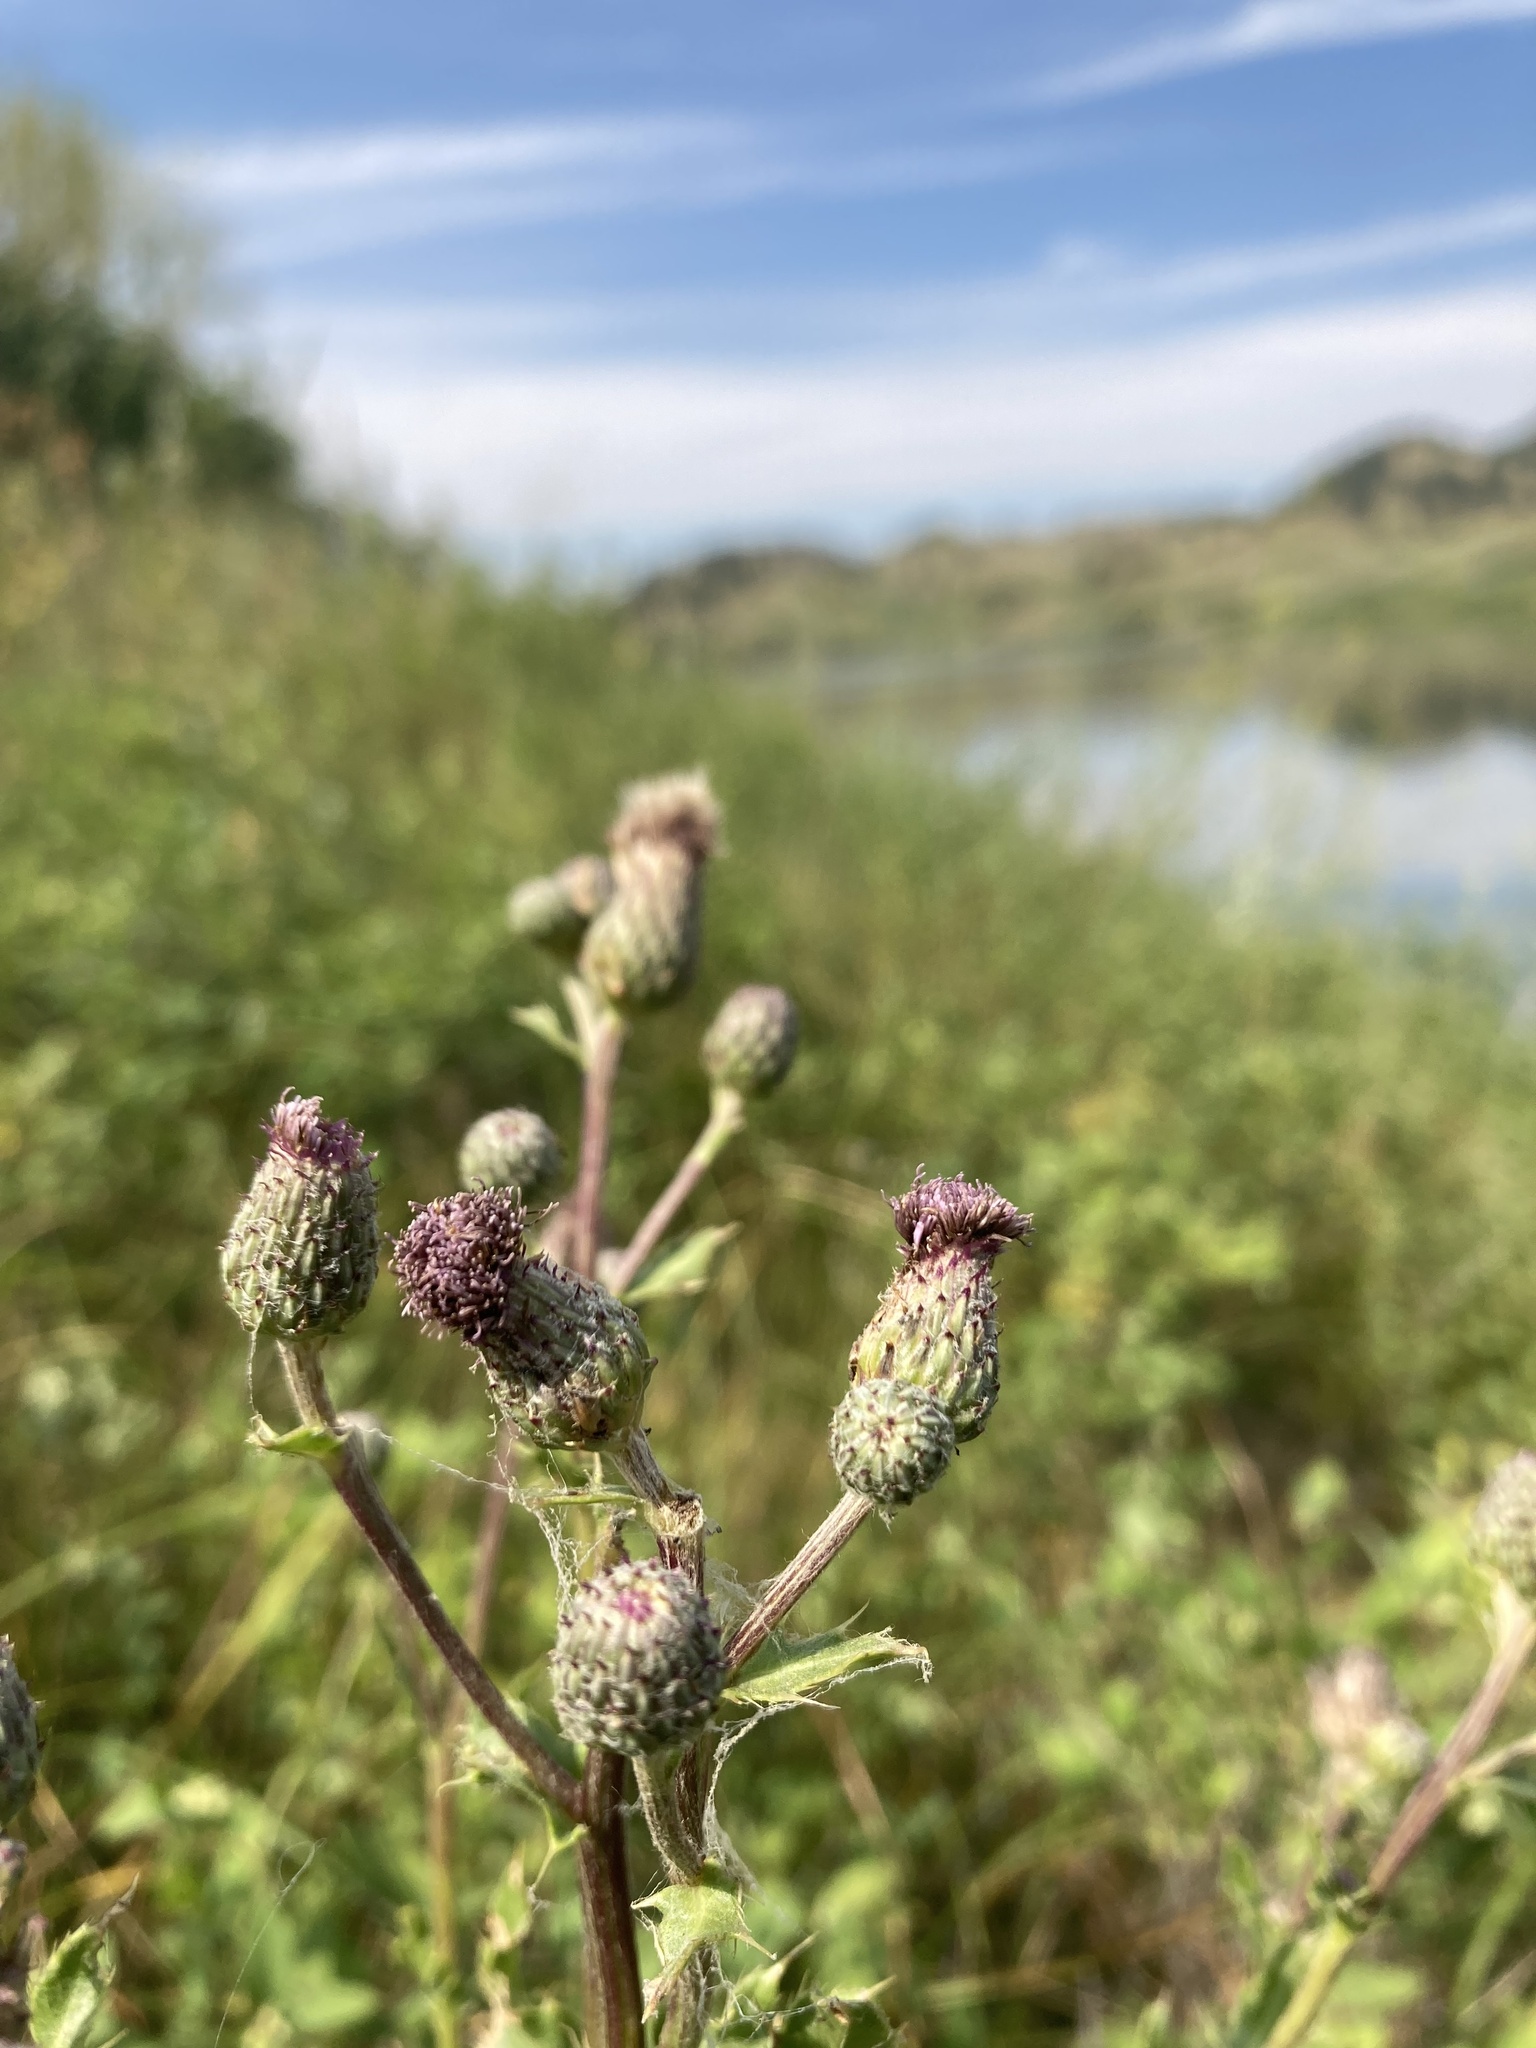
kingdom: Plantae
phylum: Tracheophyta
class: Magnoliopsida
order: Asterales
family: Asteraceae
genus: Cirsium
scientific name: Cirsium arvense
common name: Creeping thistle
